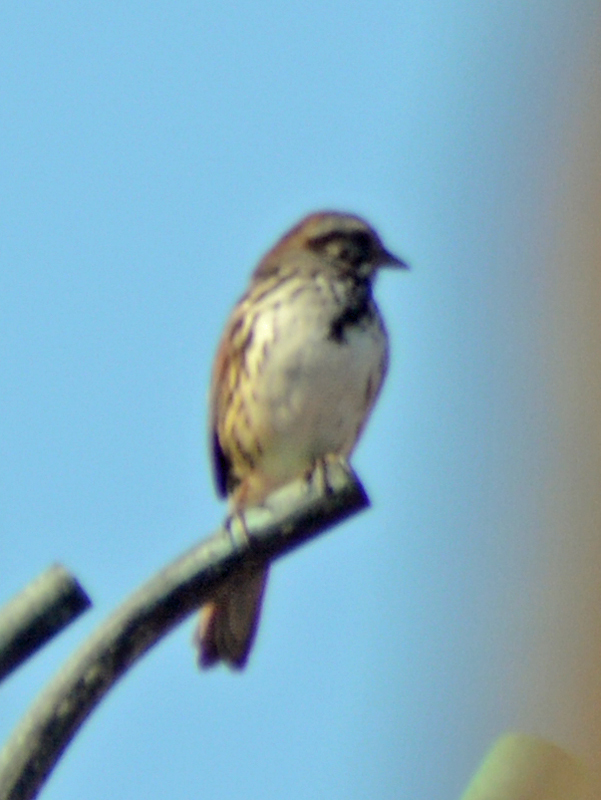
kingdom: Animalia
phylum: Chordata
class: Aves
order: Passeriformes
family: Passerellidae
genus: Melospiza
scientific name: Melospiza melodia
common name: Song sparrow
